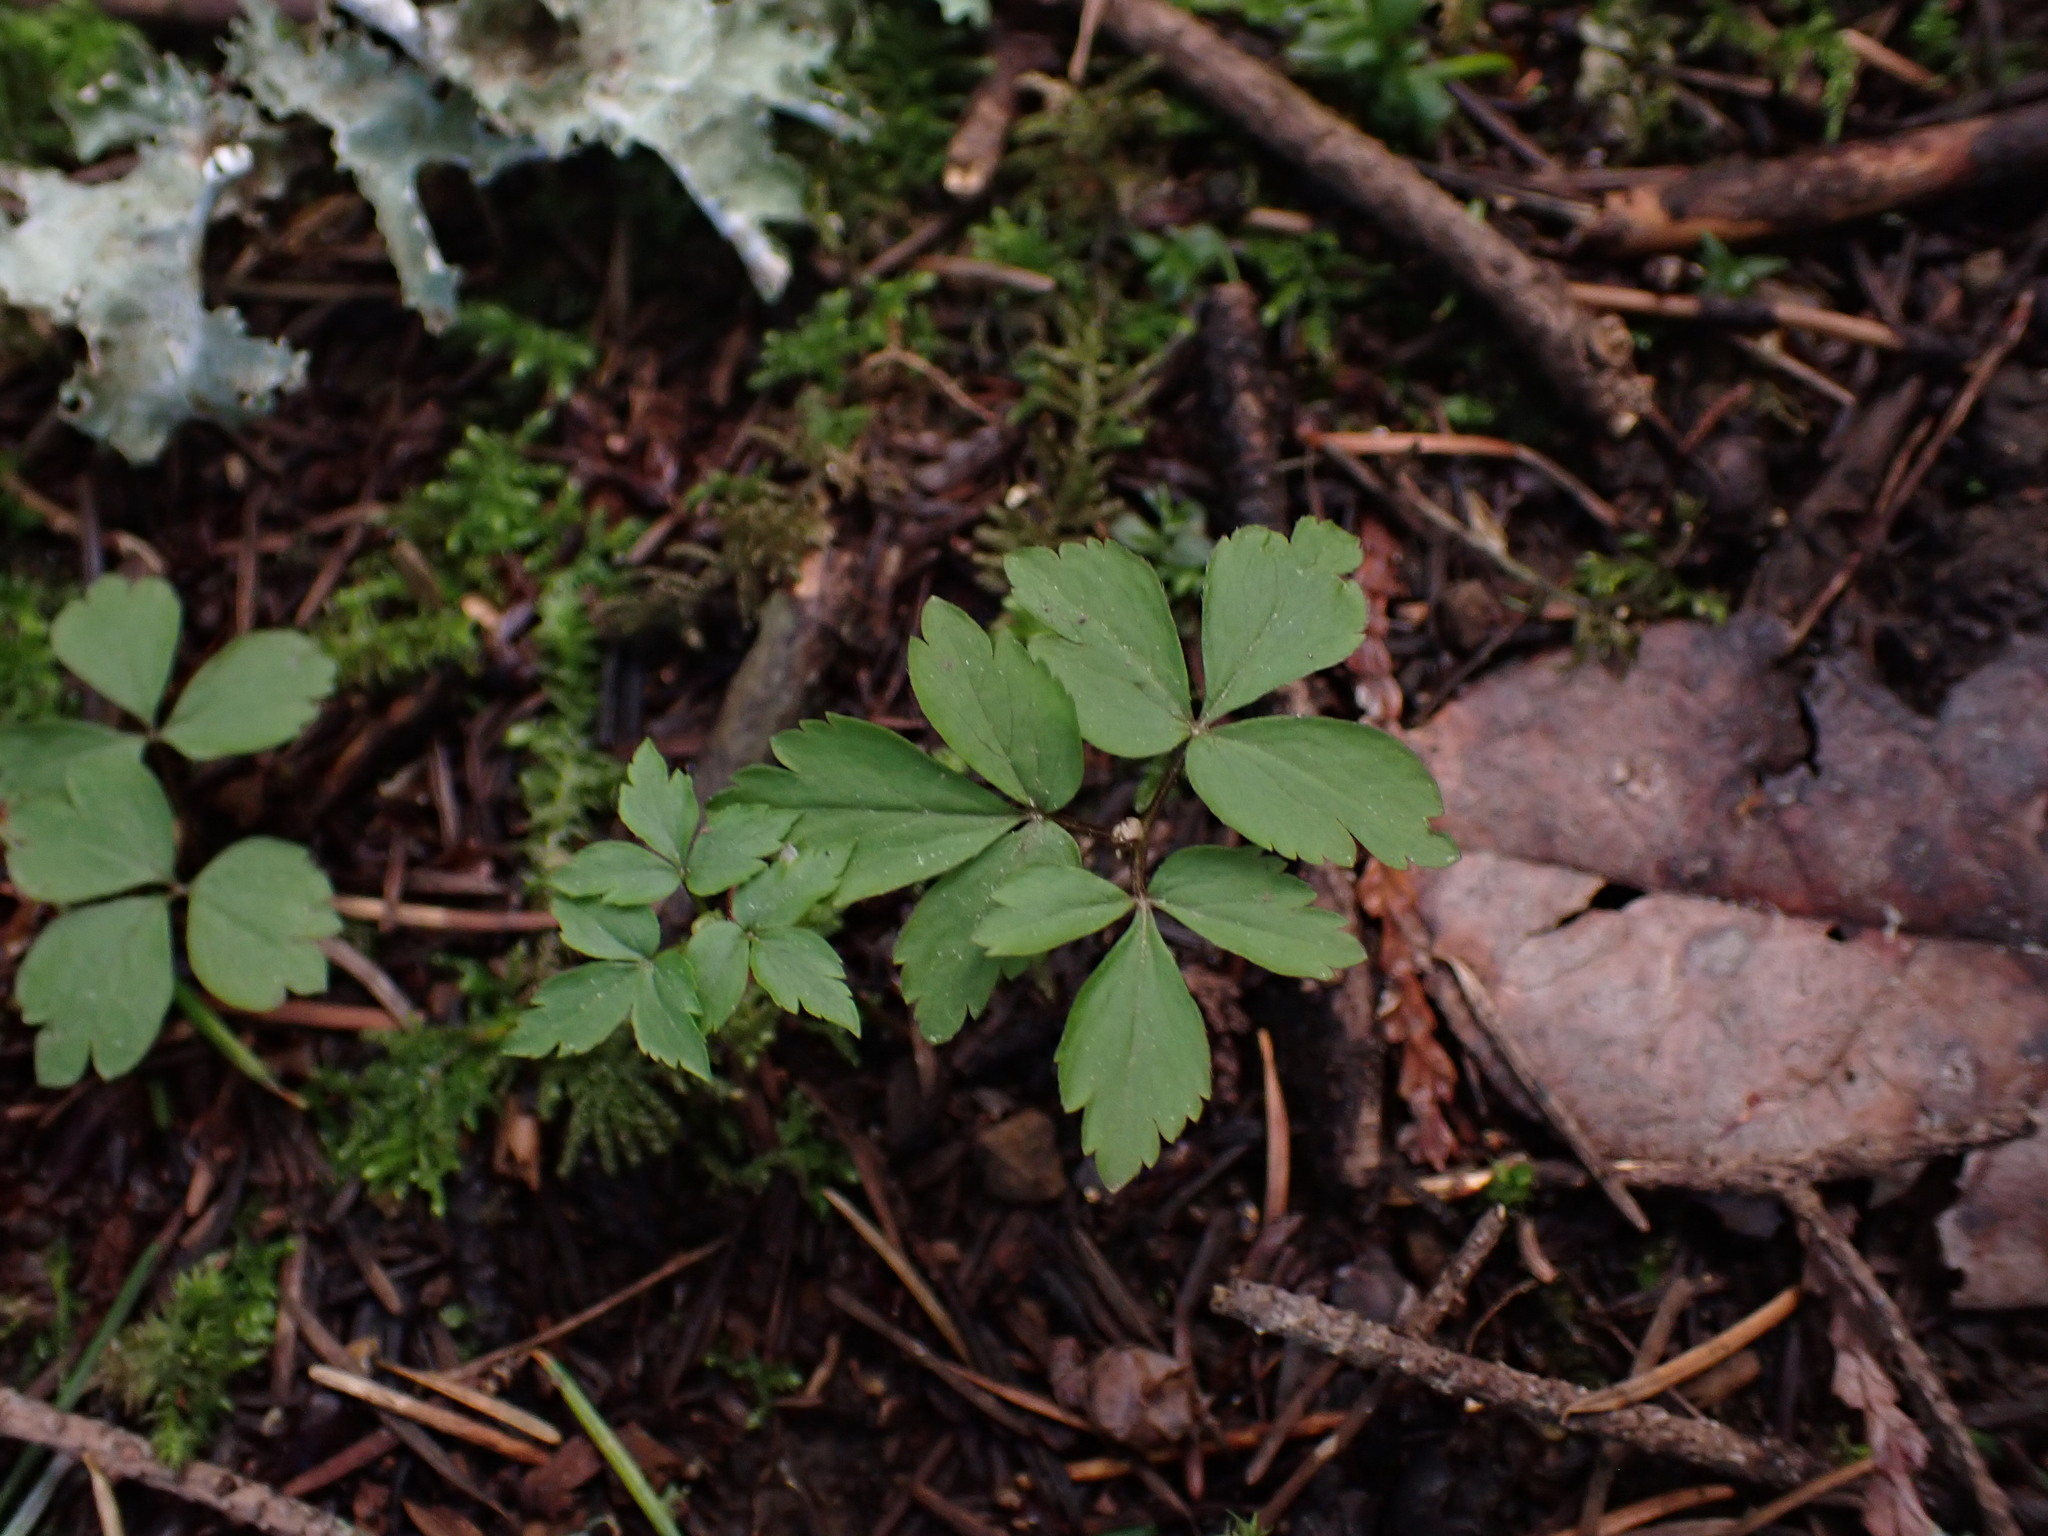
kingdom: Plantae
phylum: Tracheophyta
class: Magnoliopsida
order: Ranunculales
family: Ranunculaceae
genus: Anemone
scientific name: Anemone
